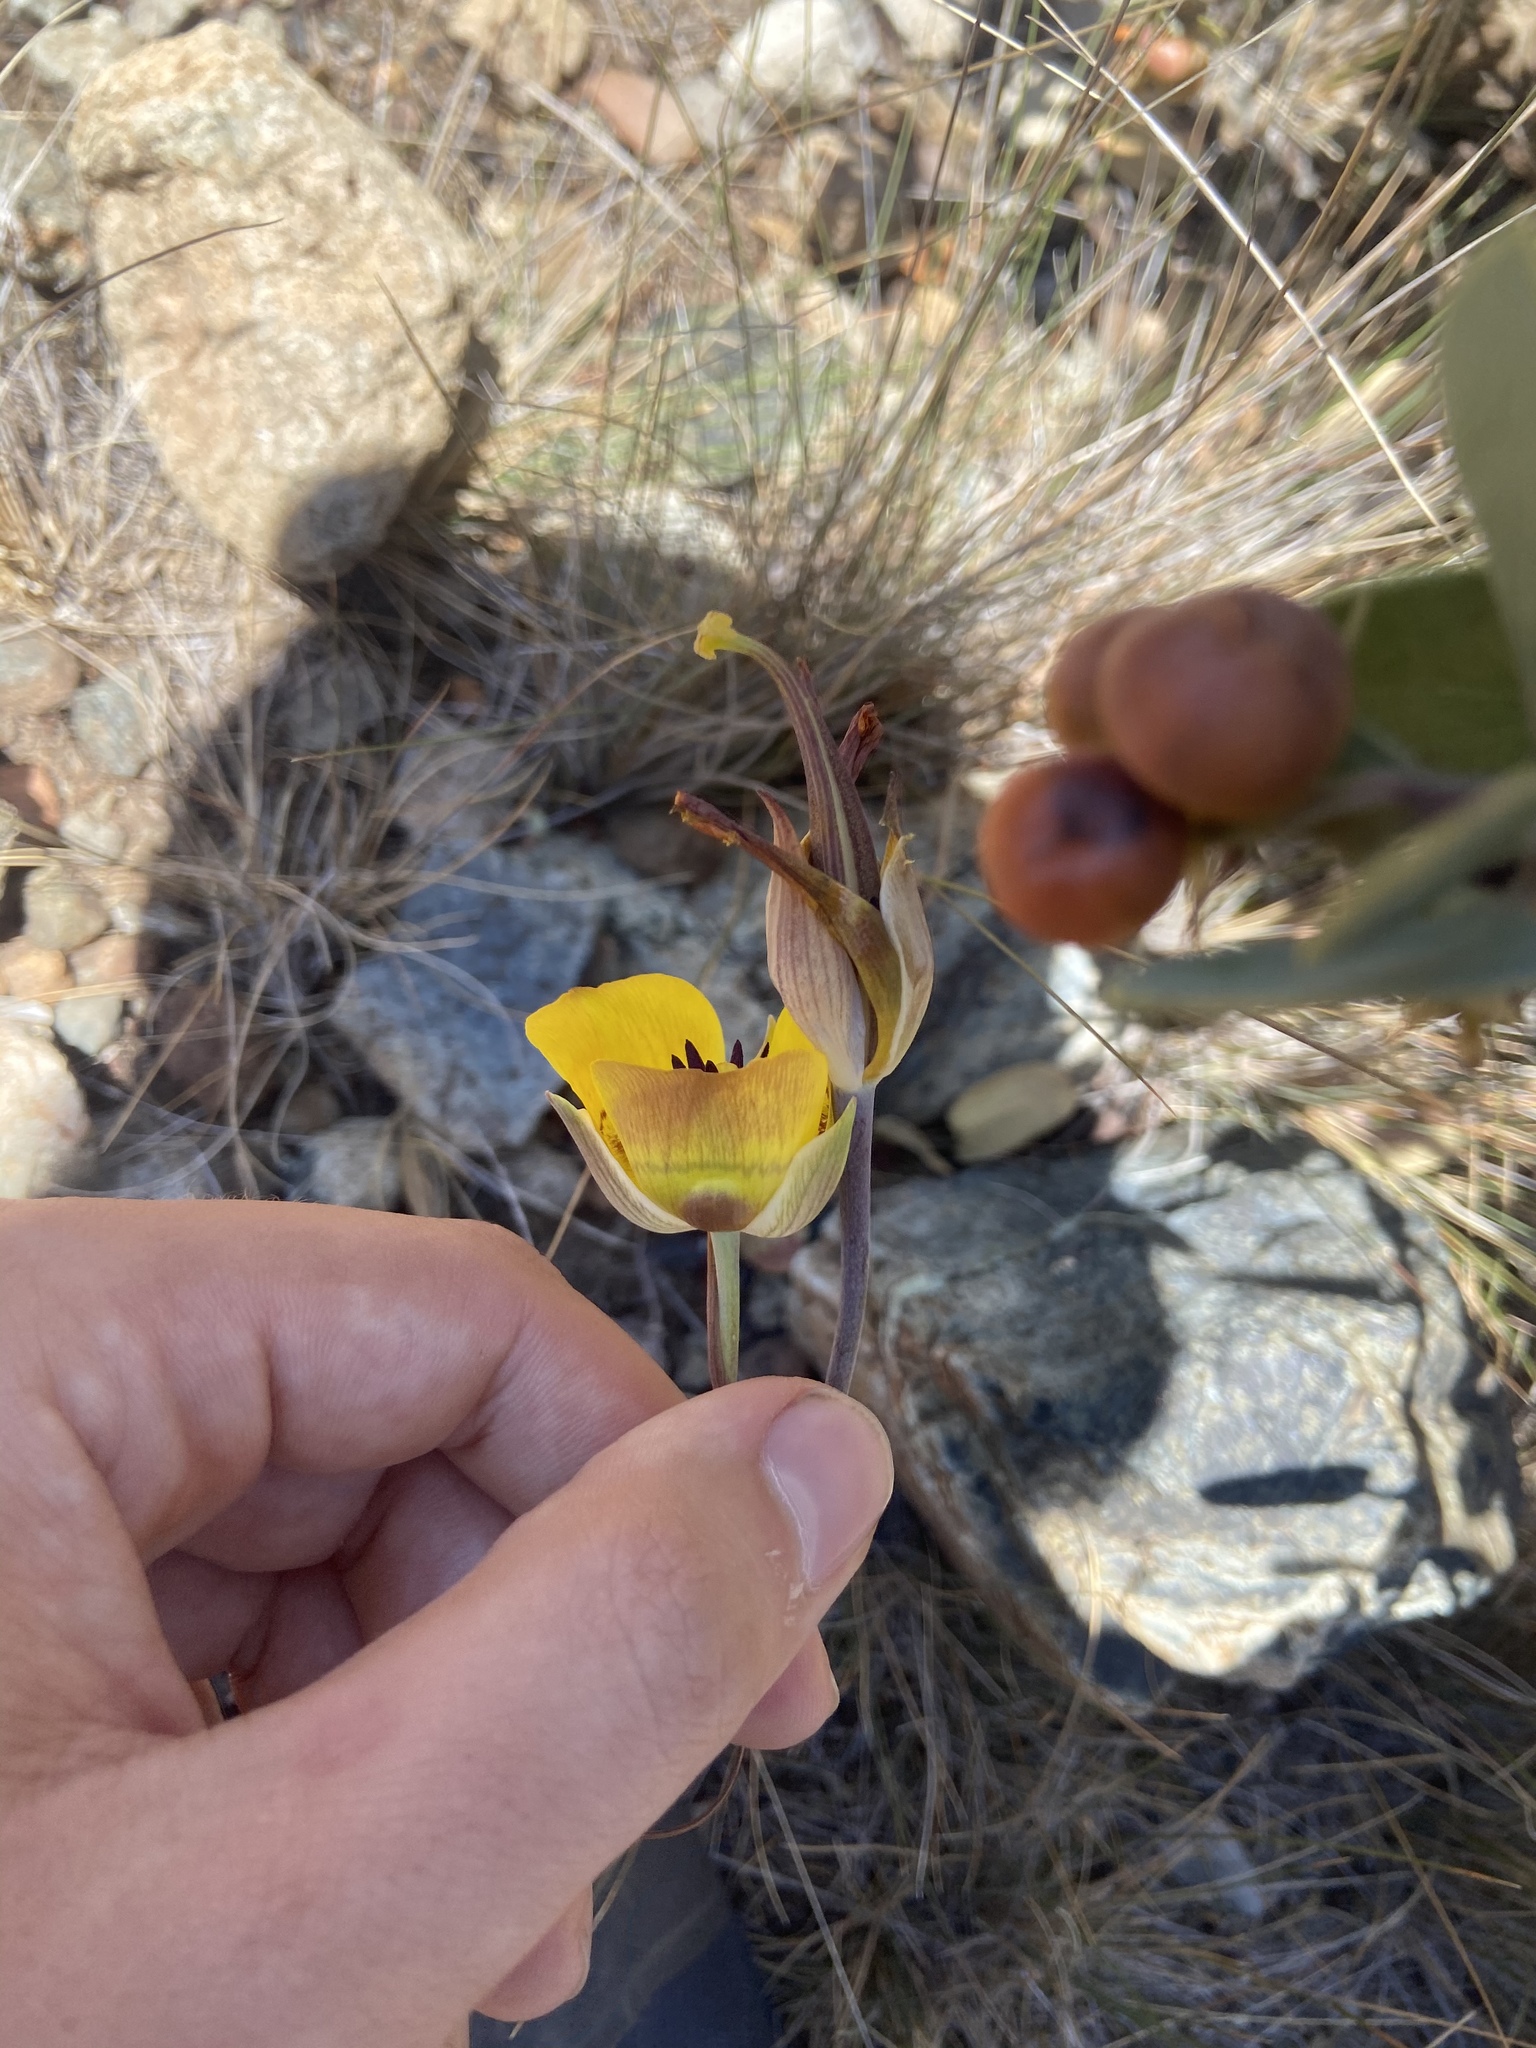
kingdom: Plantae
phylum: Tracheophyta
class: Liliopsida
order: Liliales
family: Liliaceae
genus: Calochortus
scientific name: Calochortus clavatus
